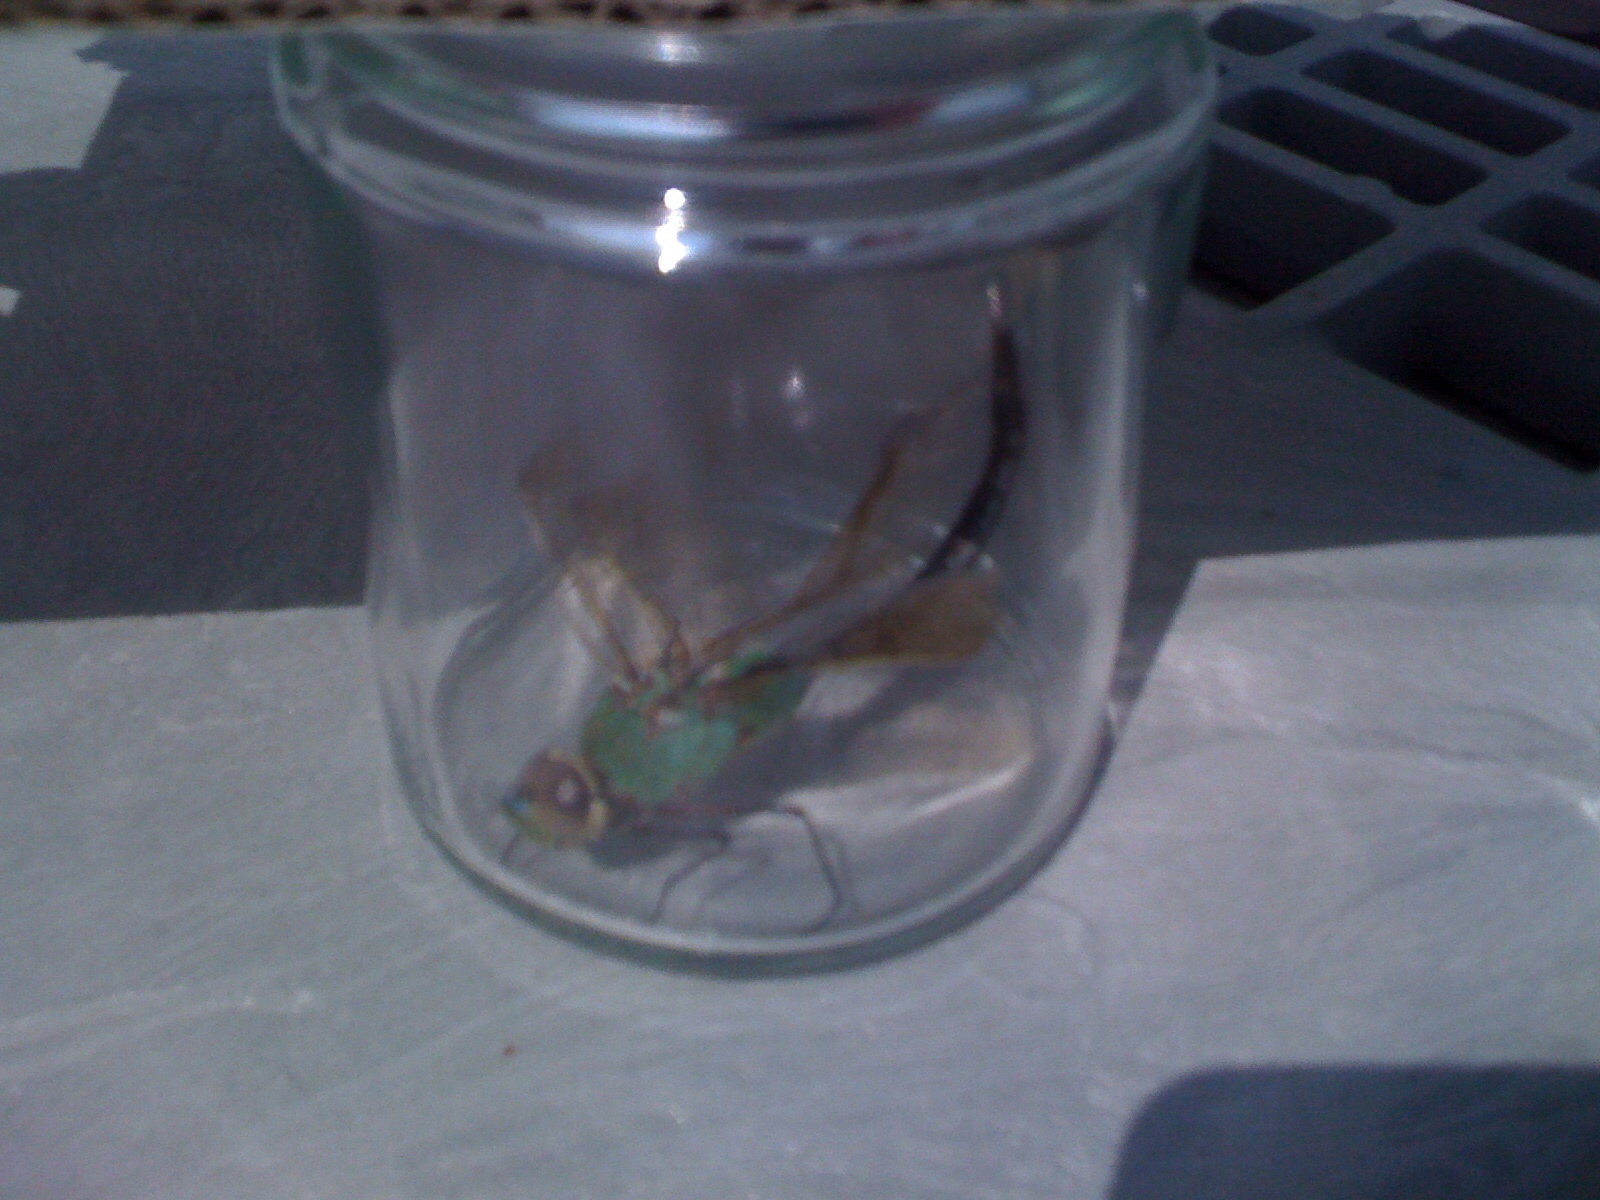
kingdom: Animalia
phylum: Arthropoda
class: Insecta
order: Odonata
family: Aeshnidae
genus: Anax
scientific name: Anax junius
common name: Common green darner
